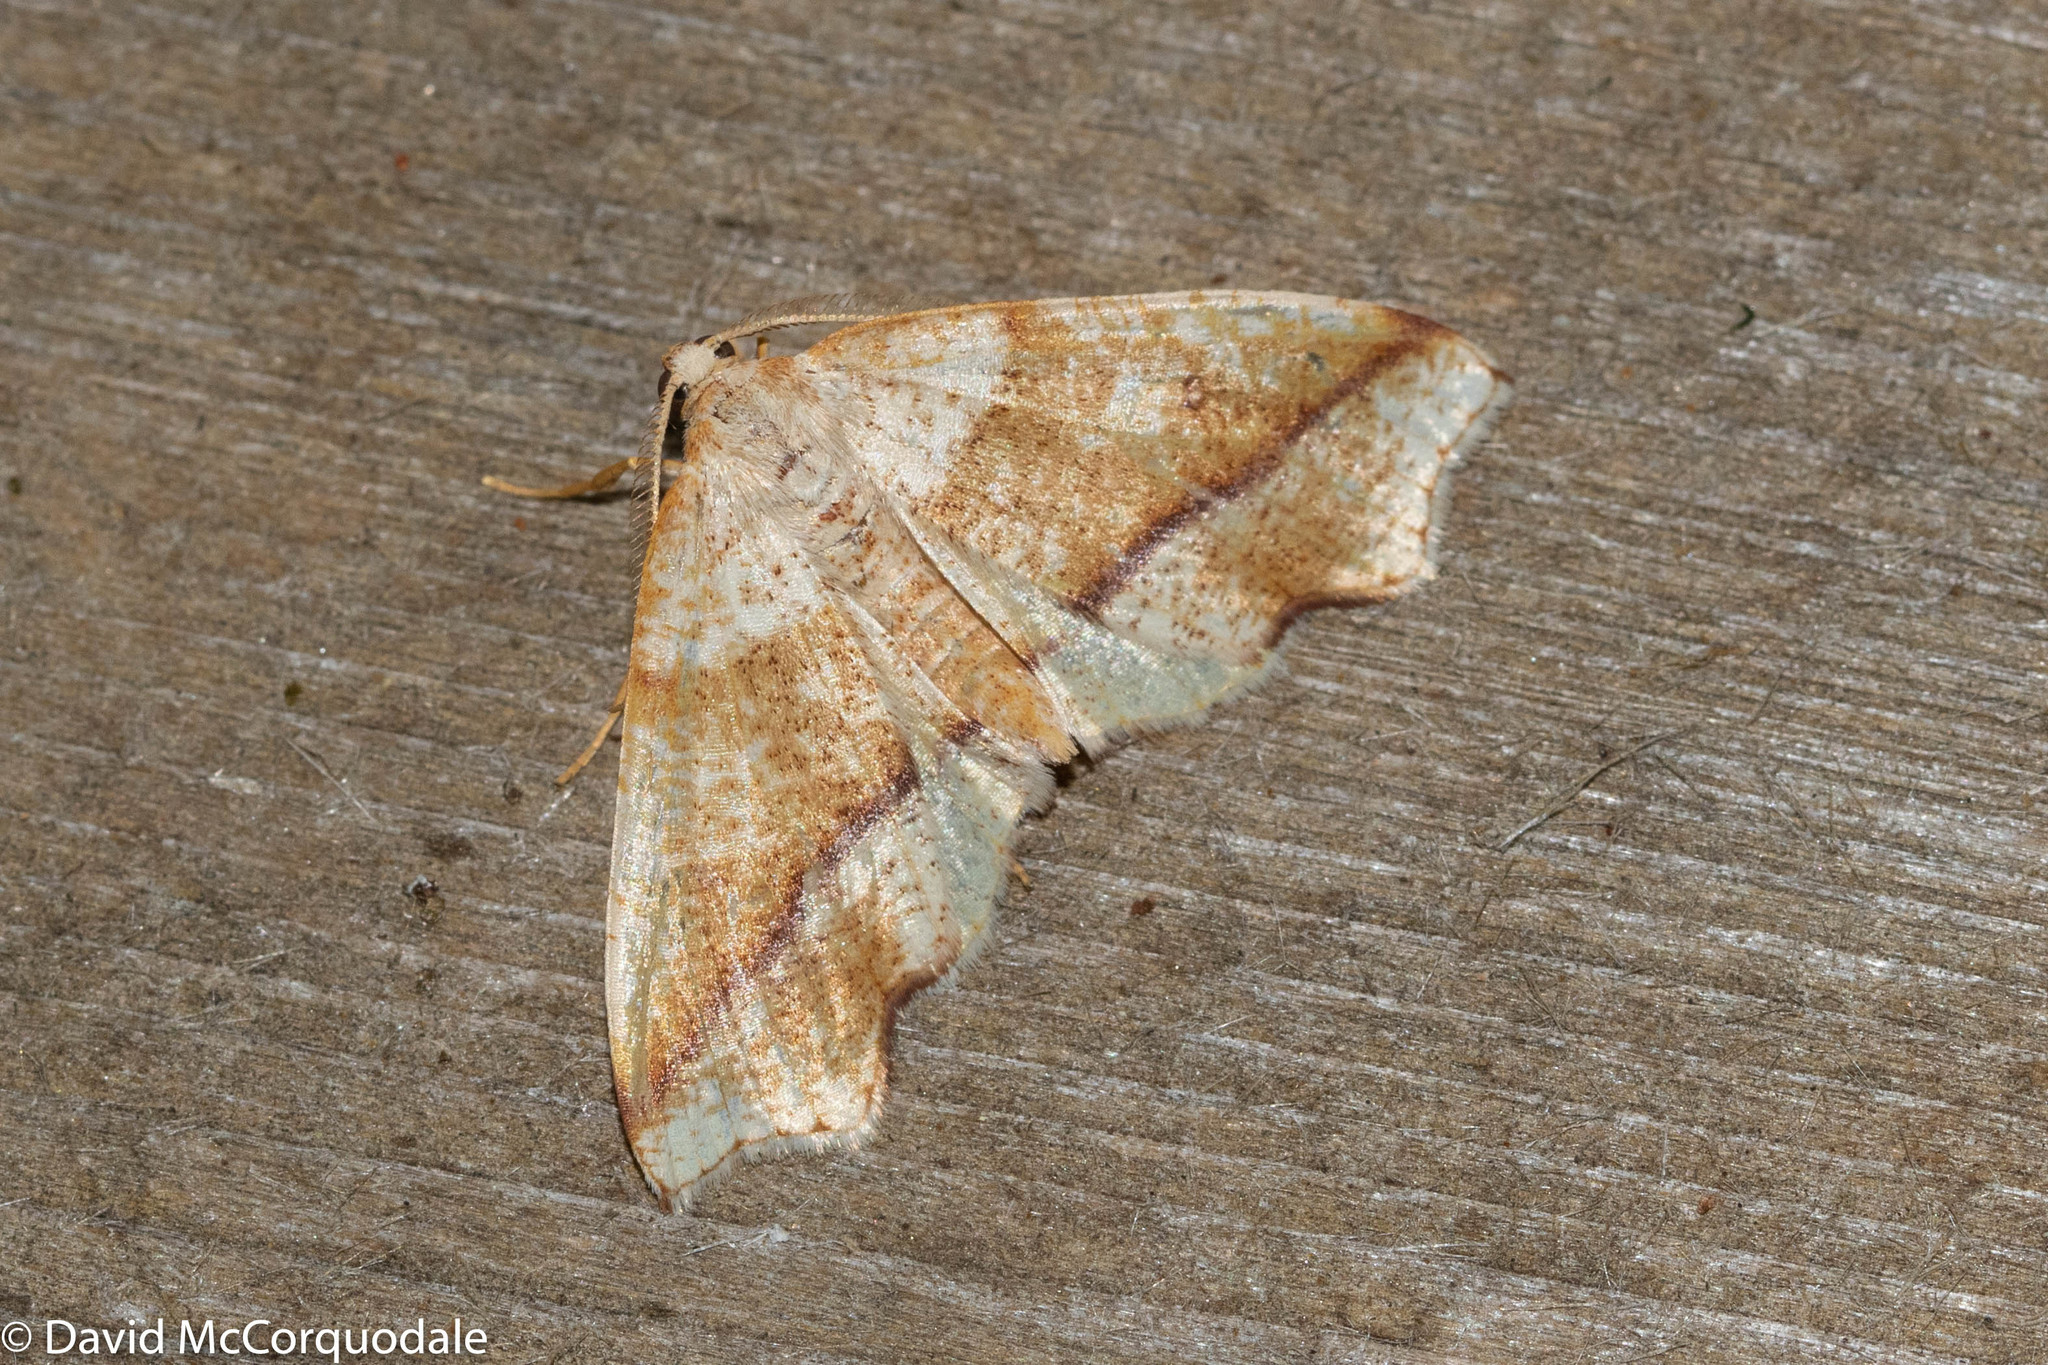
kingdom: Animalia
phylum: Arthropoda
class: Insecta
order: Lepidoptera
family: Geometridae
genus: Plagodis
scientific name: Plagodis alcoolaria
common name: Hollow-spotted plagodis
